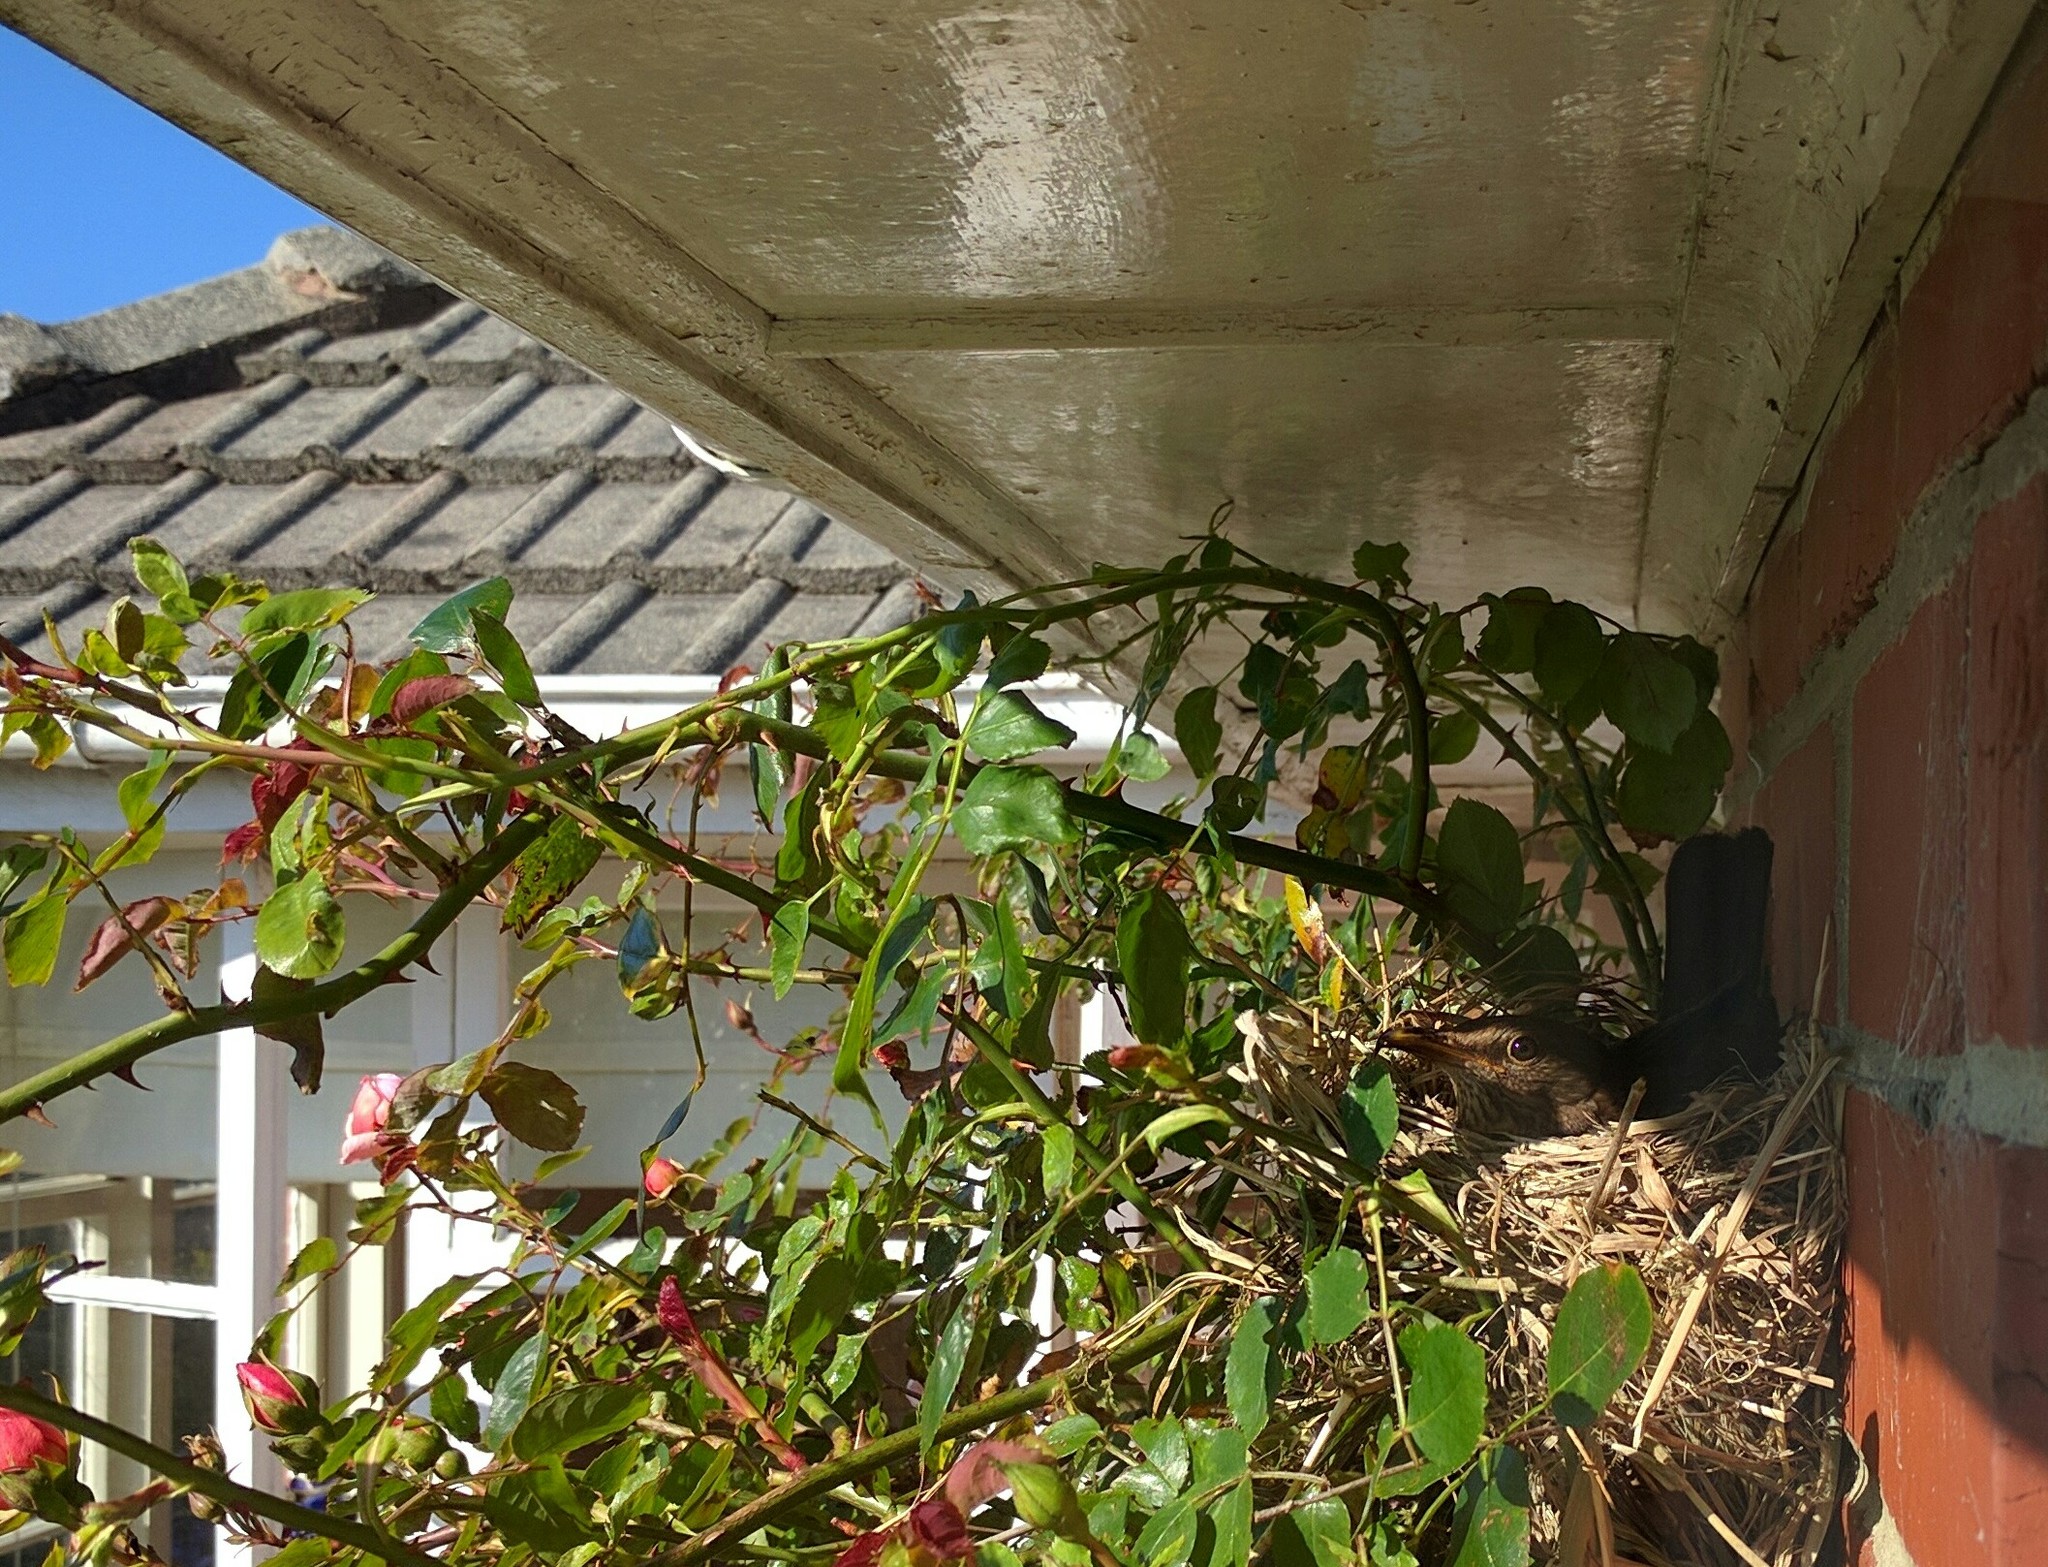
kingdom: Animalia
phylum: Chordata
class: Aves
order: Passeriformes
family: Turdidae
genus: Turdus
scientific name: Turdus merula
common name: Common blackbird
